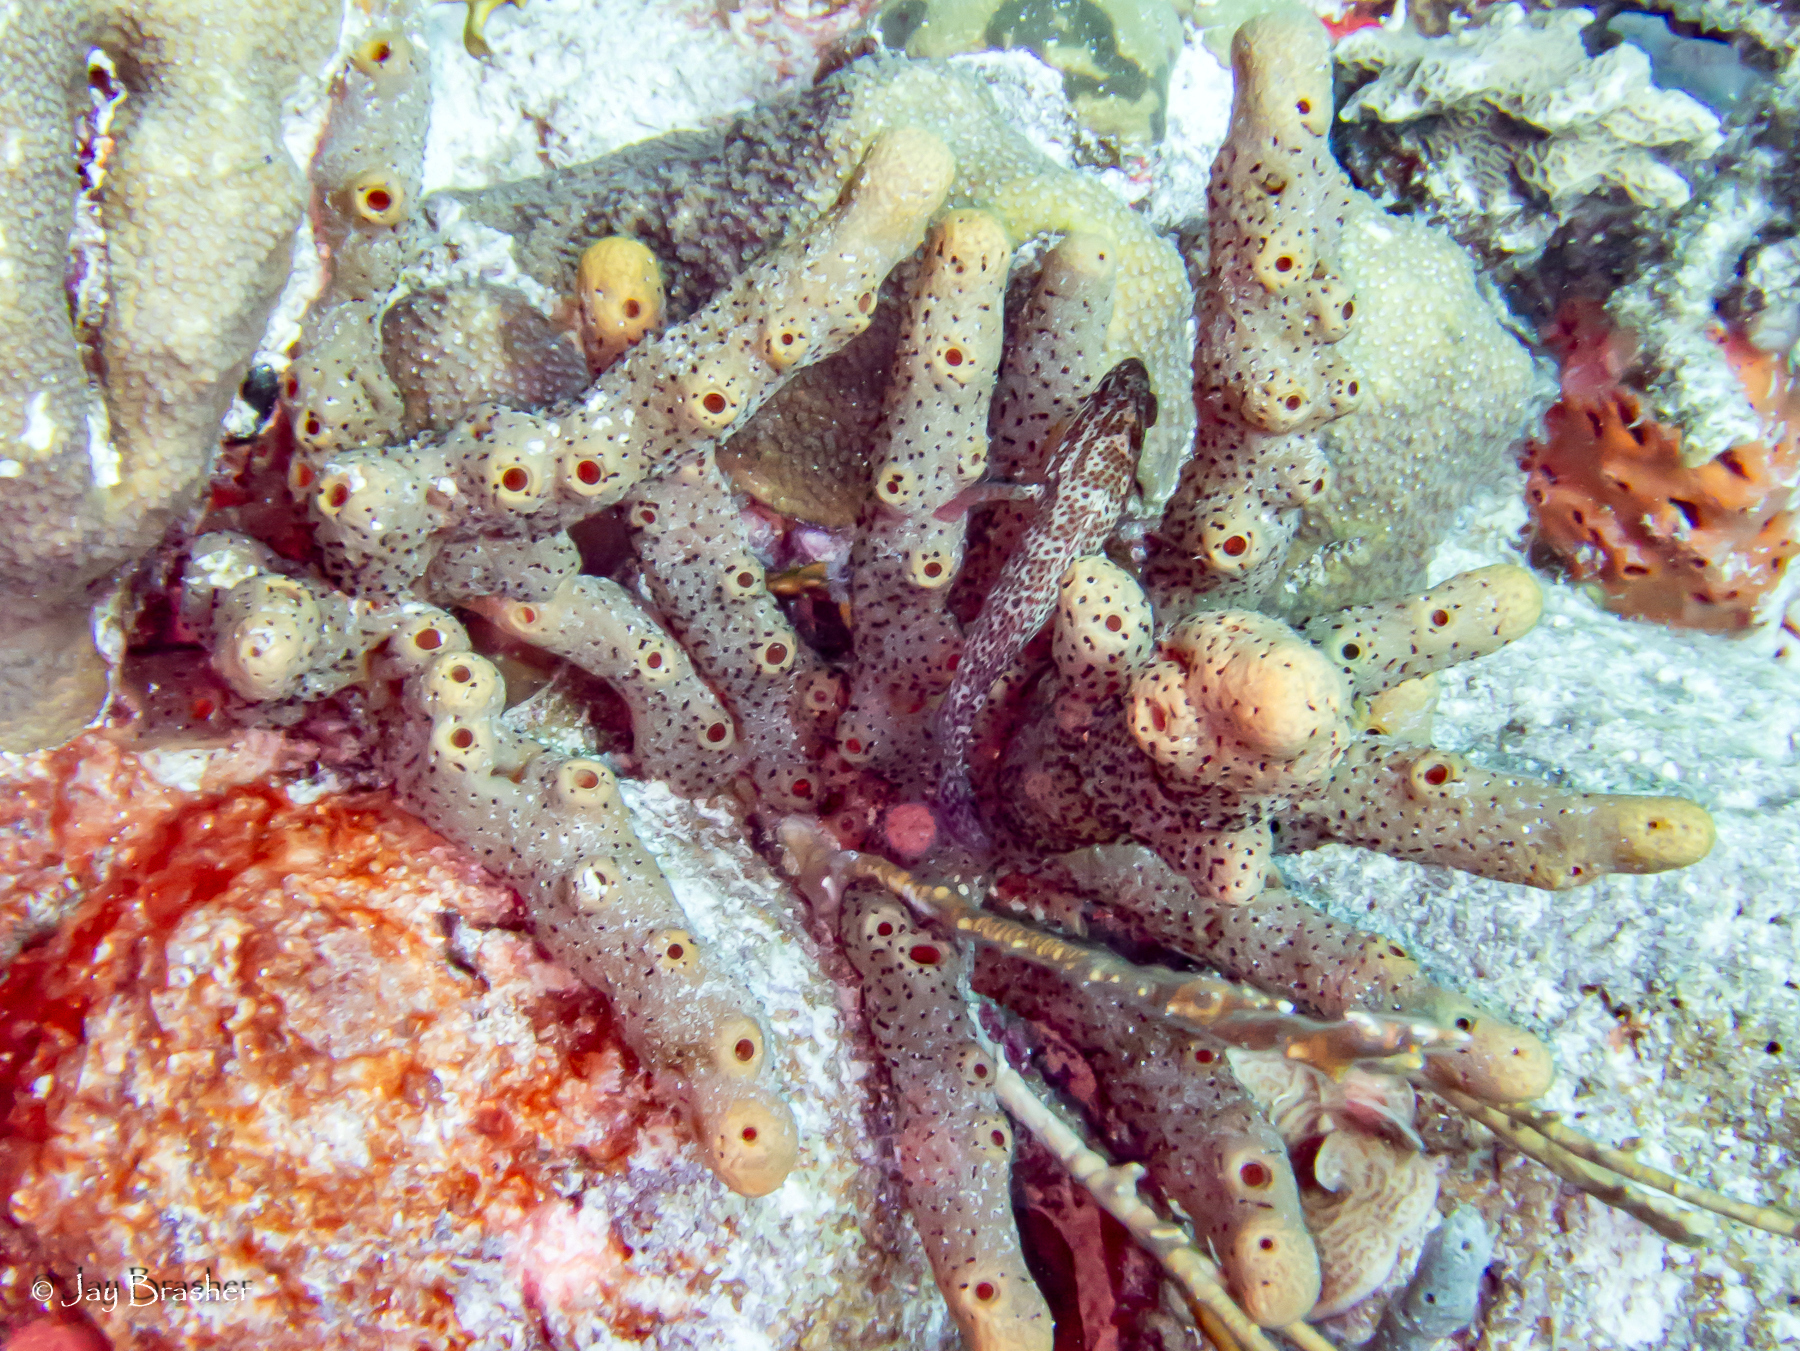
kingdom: Animalia
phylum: Chordata
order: Perciformes
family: Serranidae
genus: Cephalopholis
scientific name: Cephalopholis cruentata
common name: Graysby
